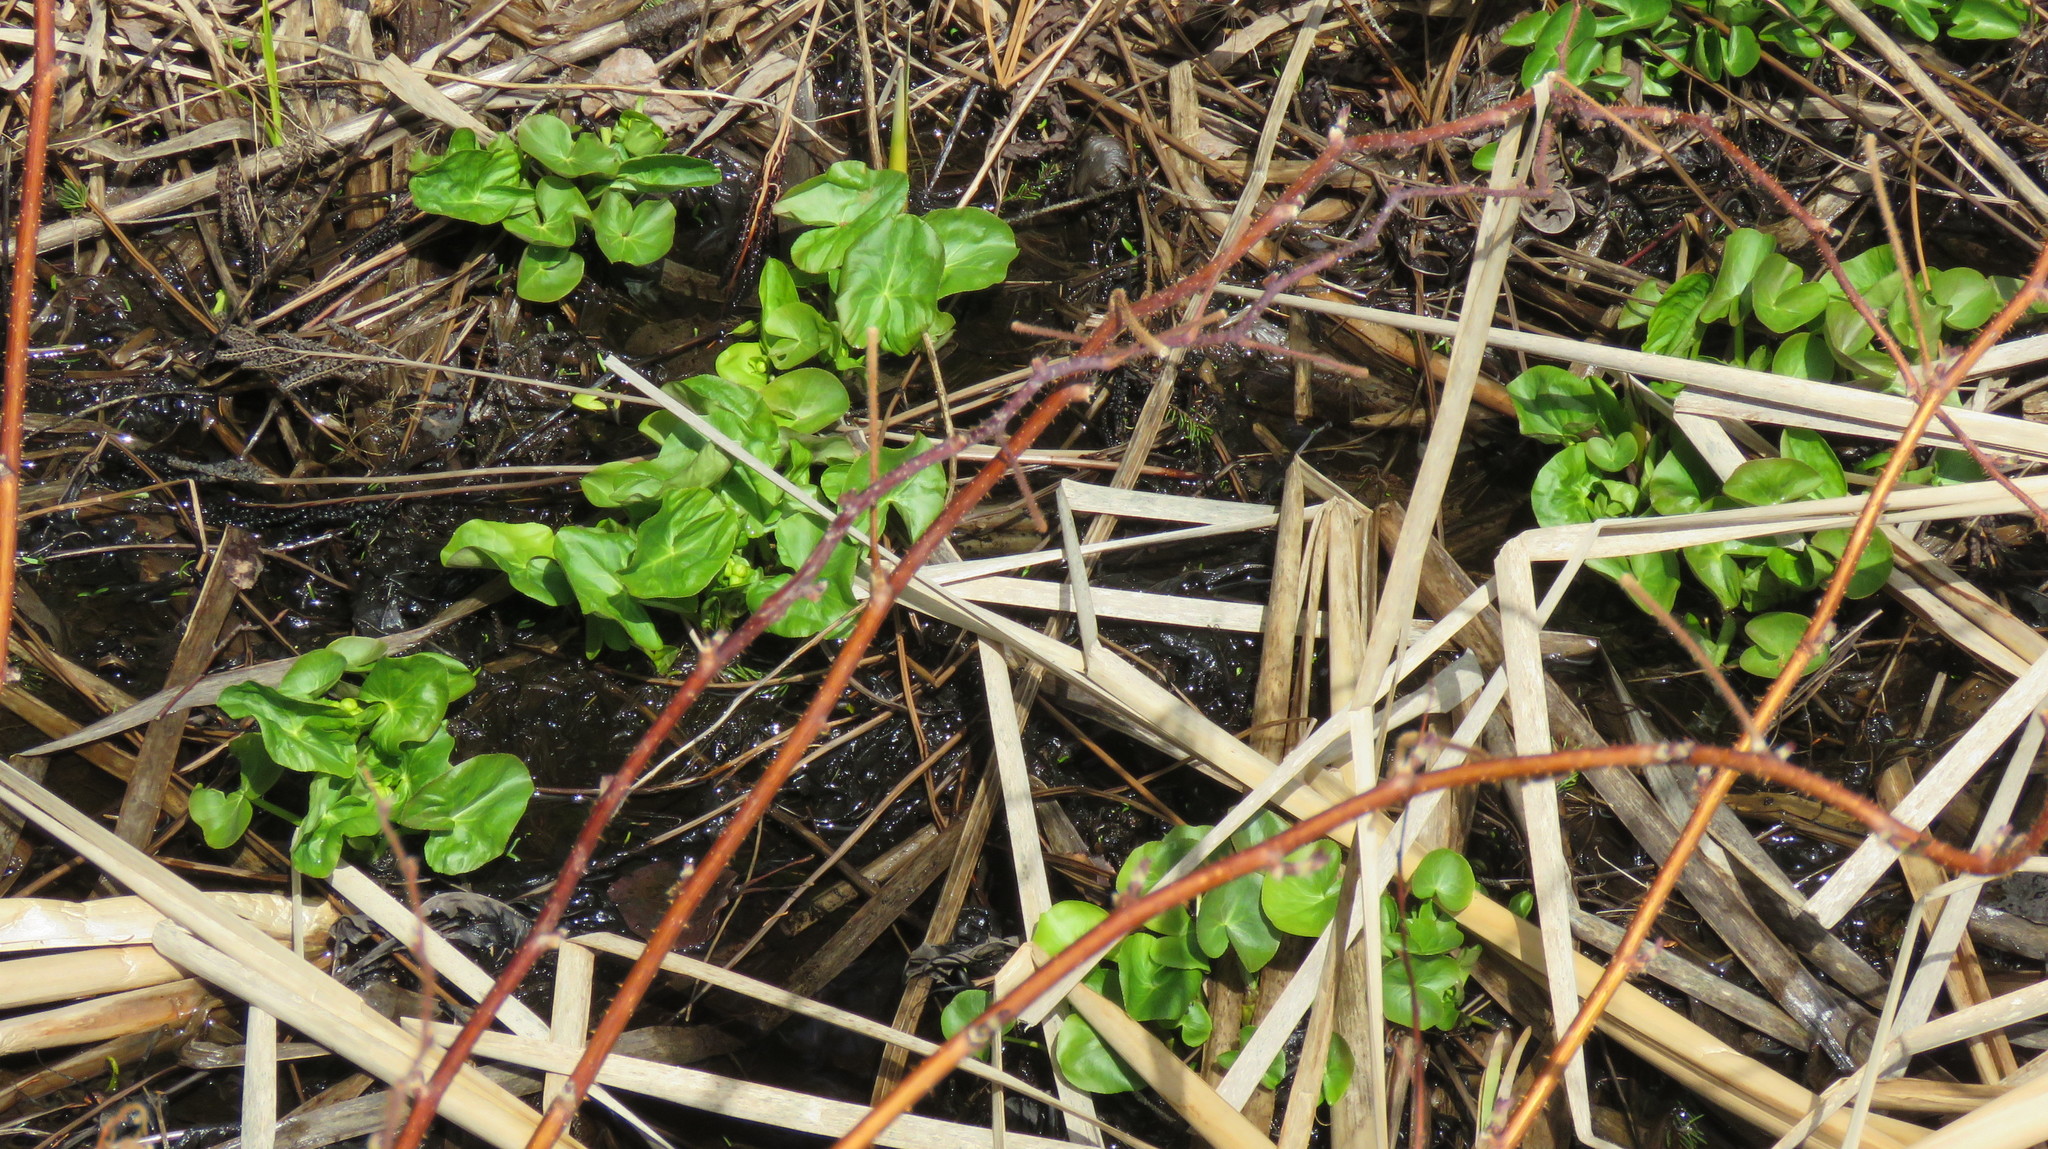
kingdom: Plantae
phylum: Tracheophyta
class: Magnoliopsida
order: Ranunculales
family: Ranunculaceae
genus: Caltha
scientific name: Caltha palustris
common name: Marsh marigold
